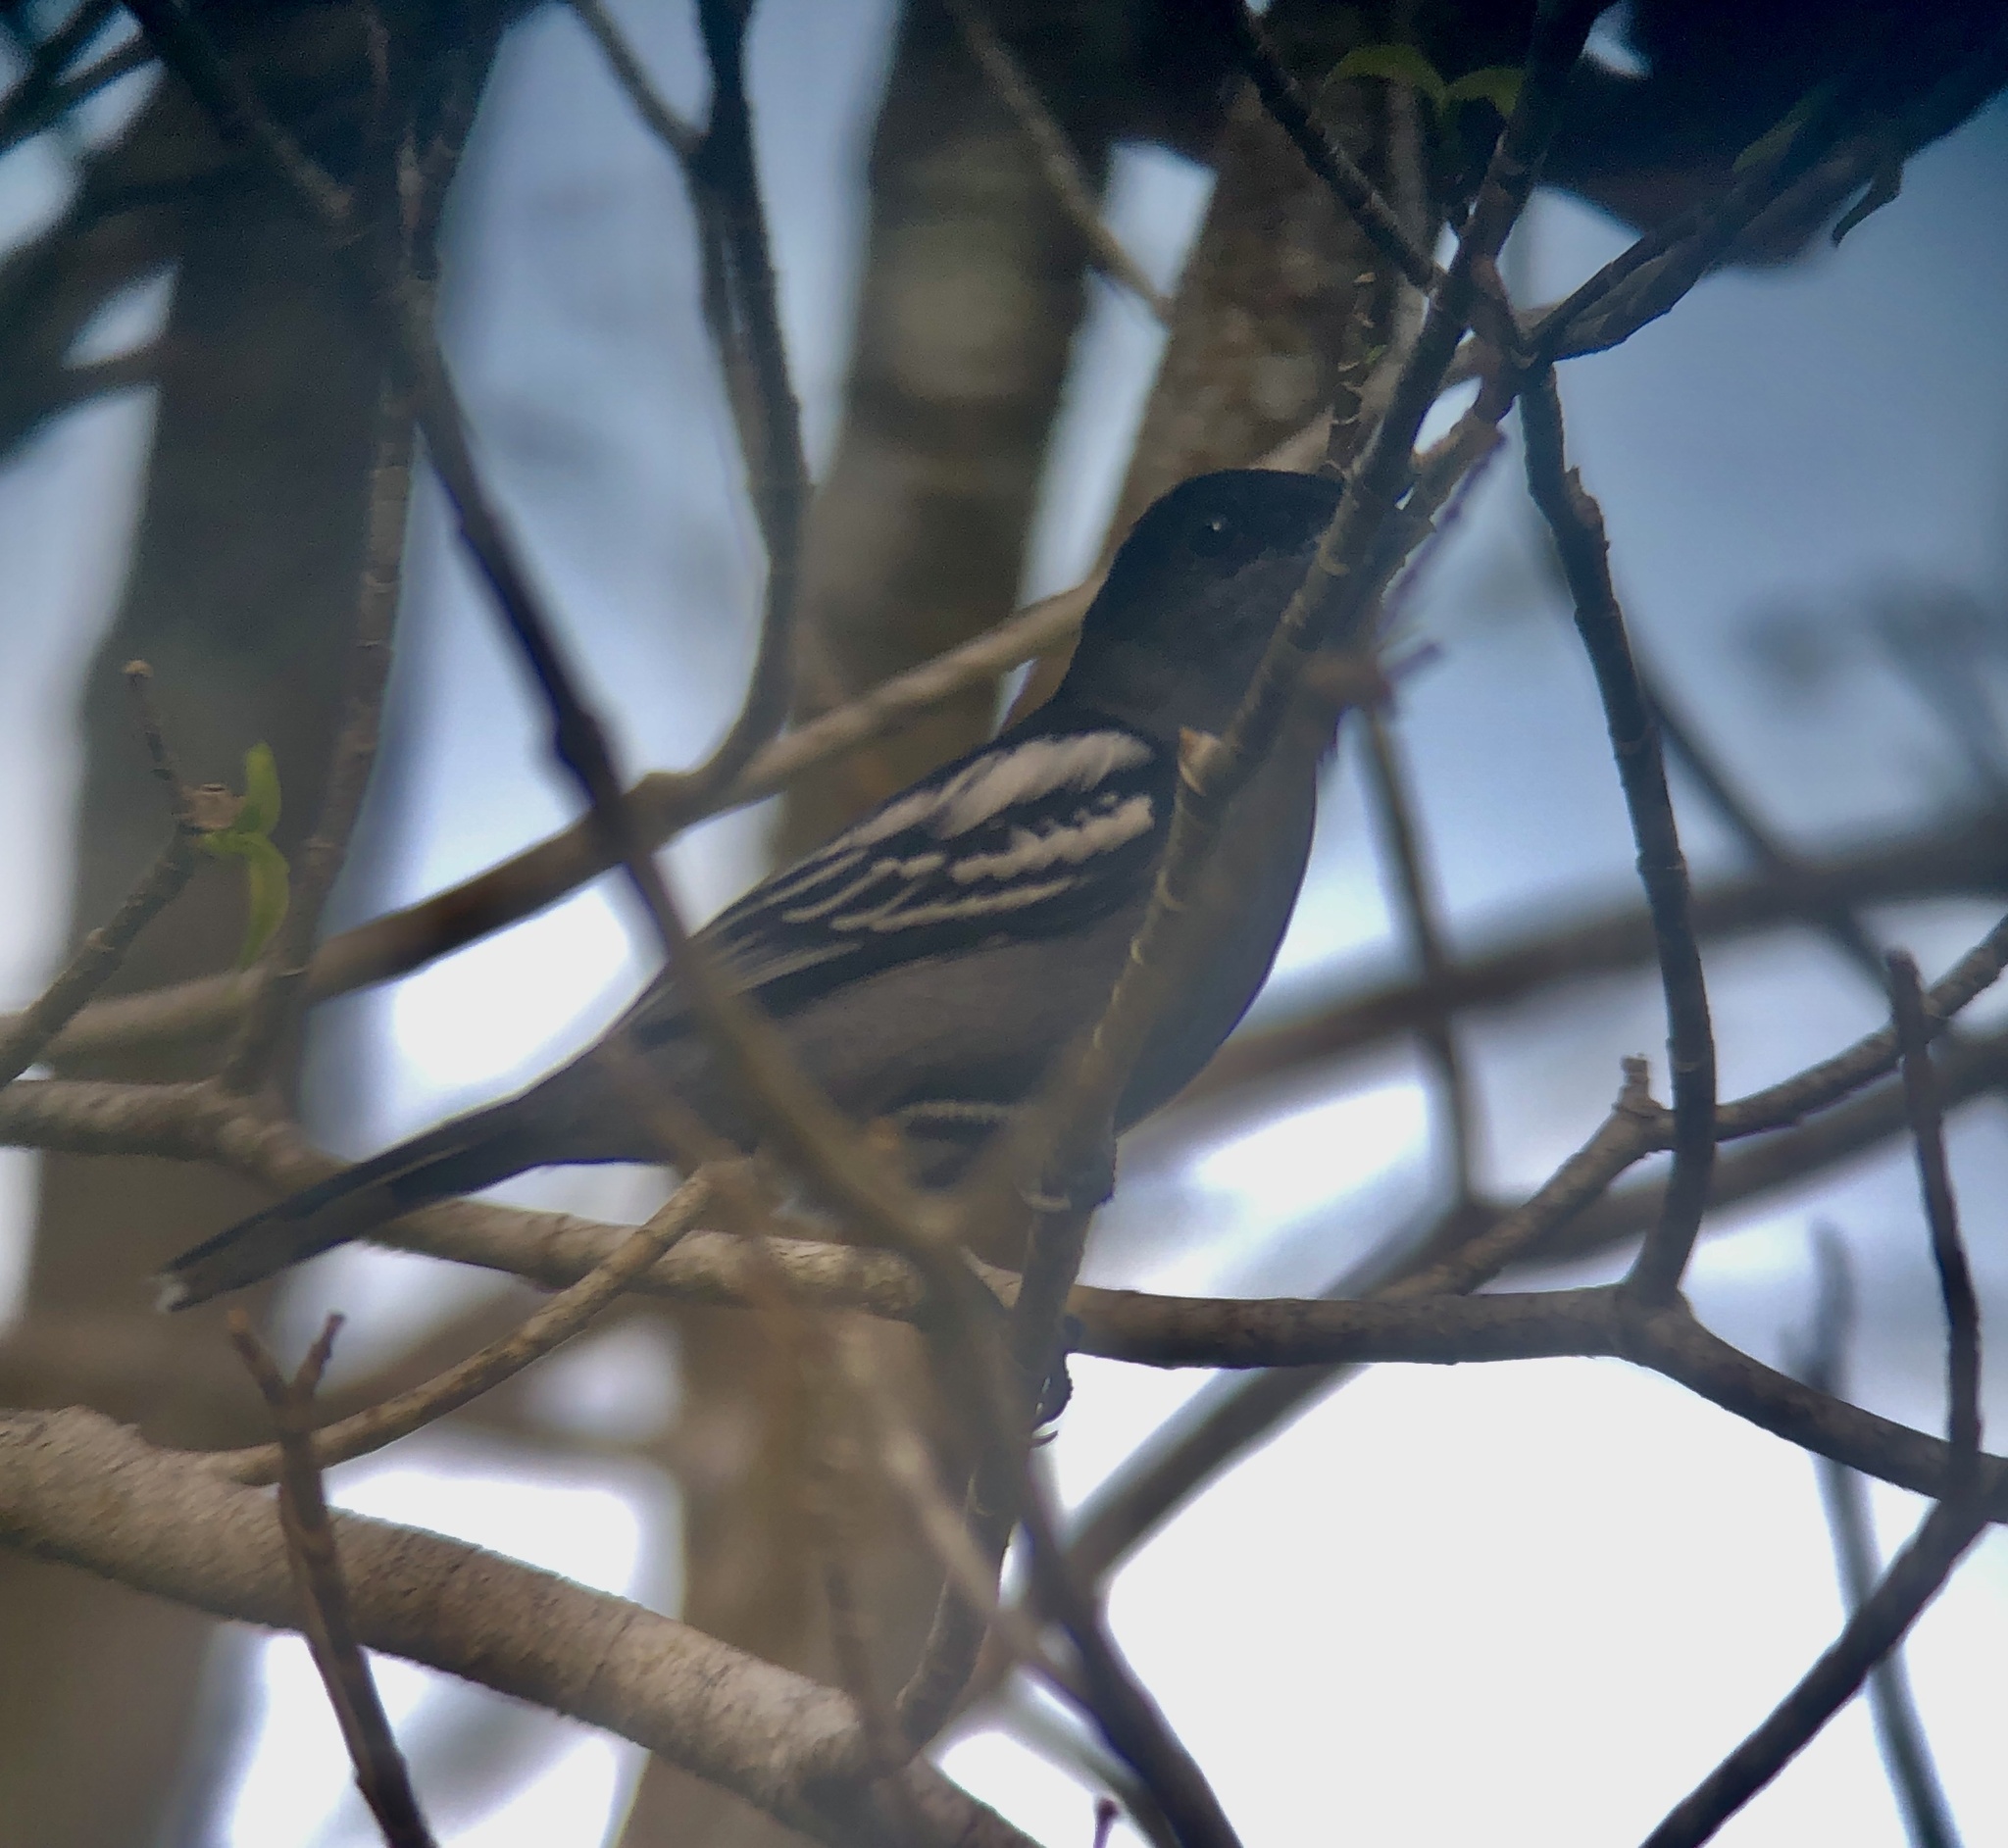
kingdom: Animalia
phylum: Chordata
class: Aves
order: Passeriformes
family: Cotingidae
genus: Pachyramphus
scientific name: Pachyramphus polychopterus
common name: White-winged becard
